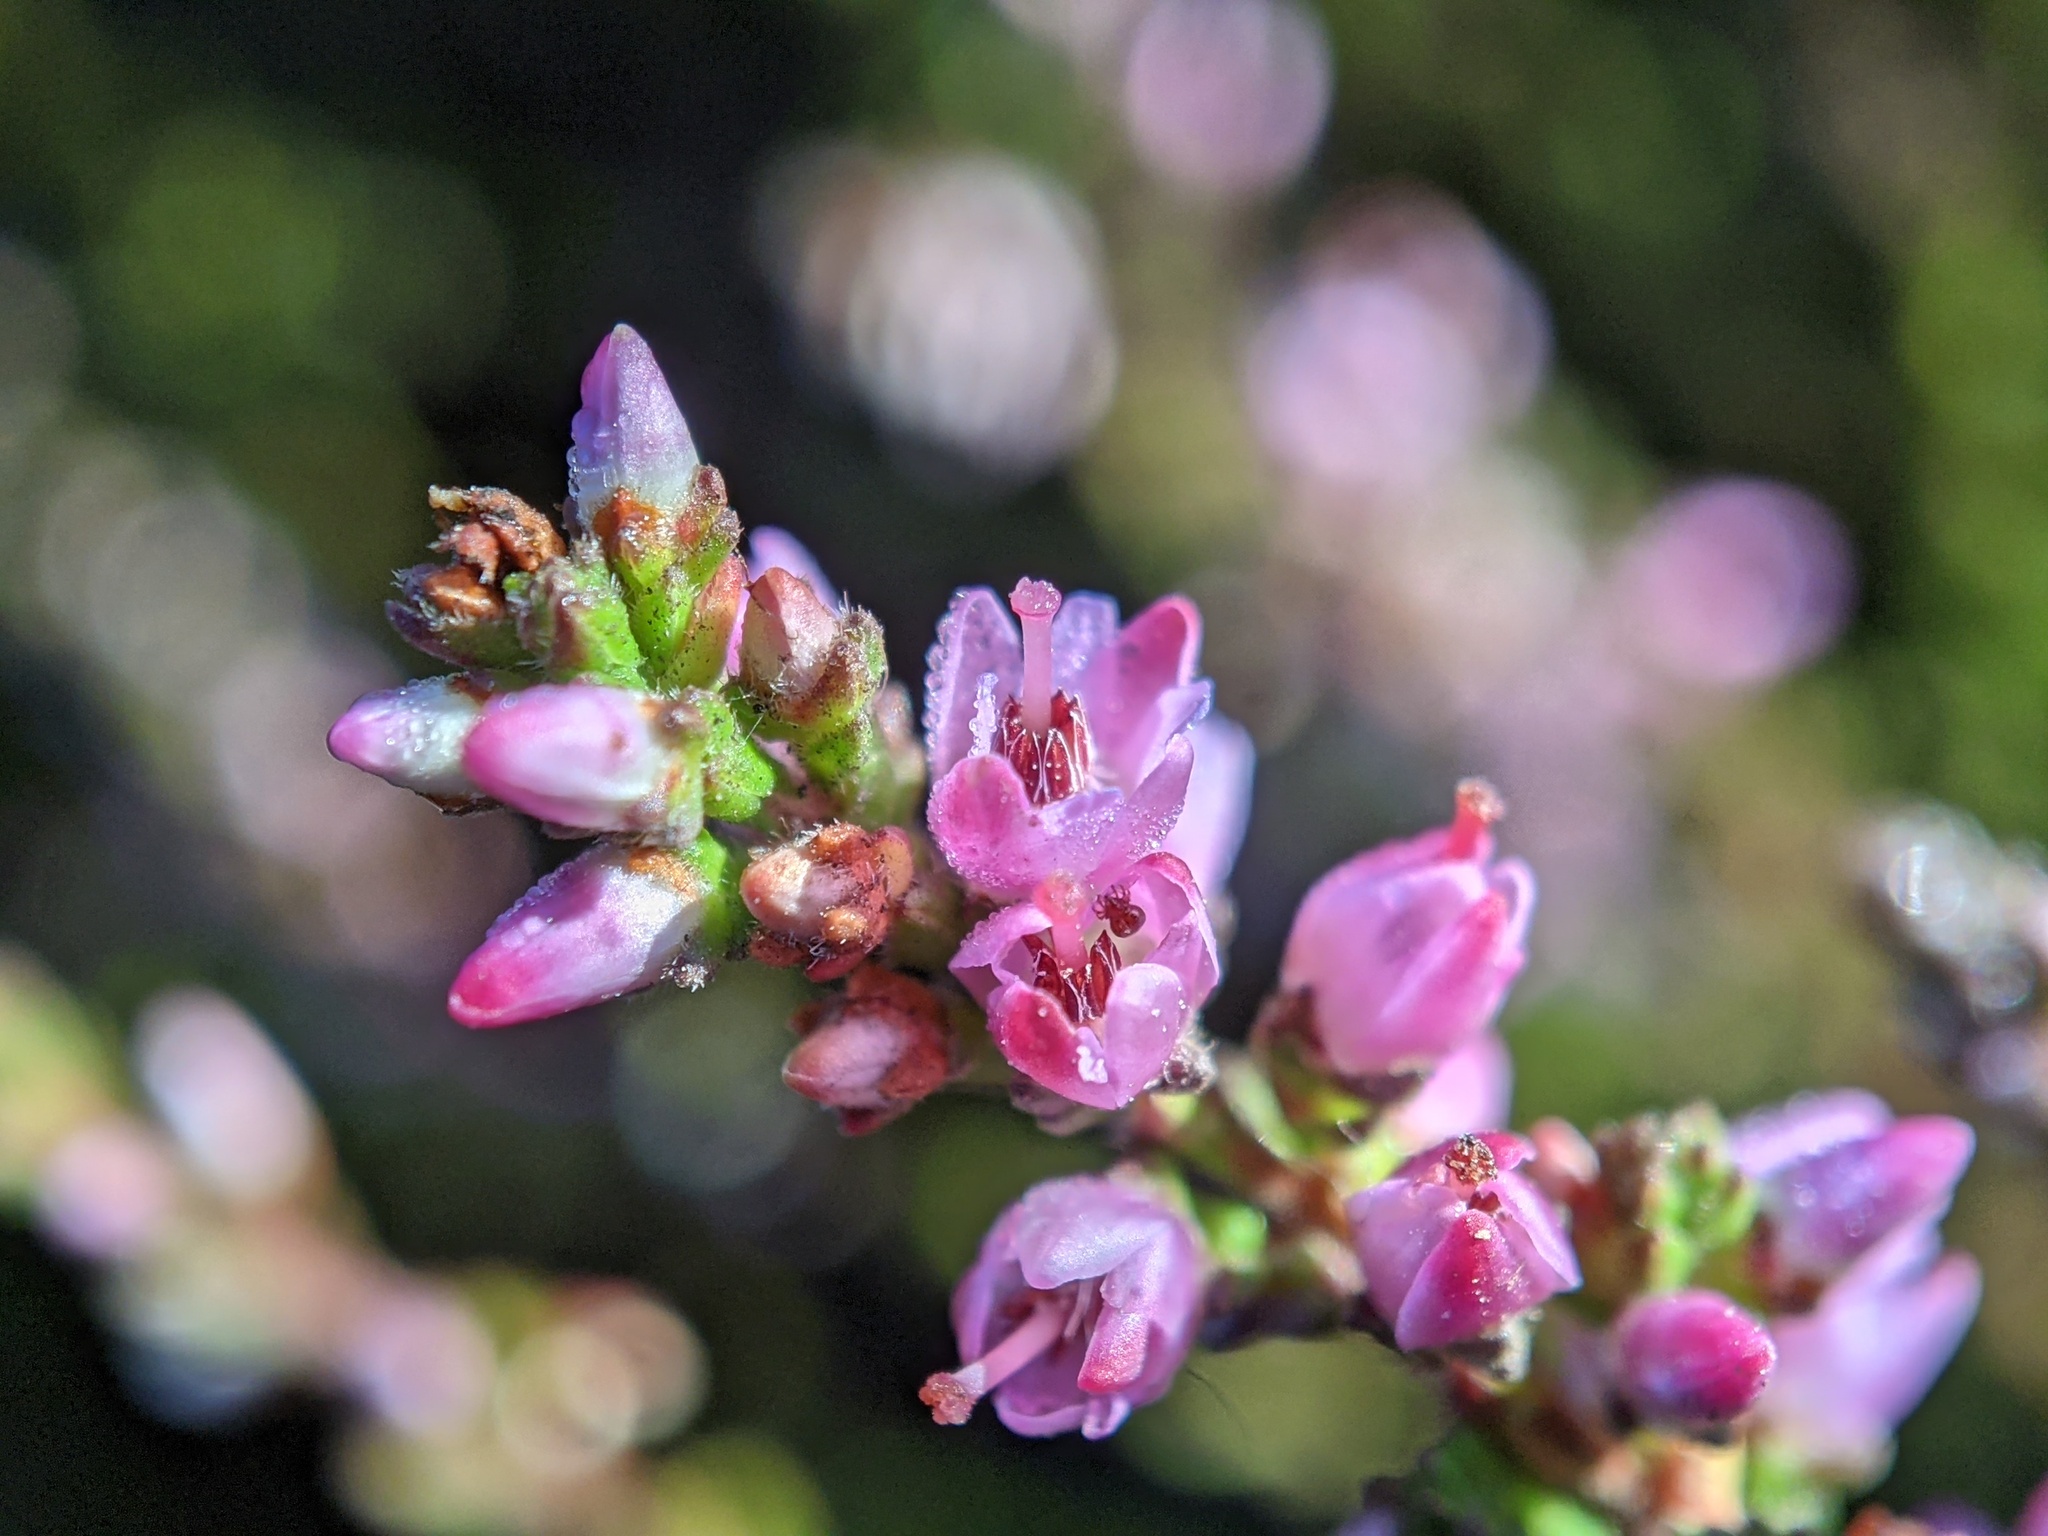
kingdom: Plantae
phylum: Tracheophyta
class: Magnoliopsida
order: Ericales
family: Ericaceae
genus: Calluna
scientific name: Calluna vulgaris
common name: Heather
